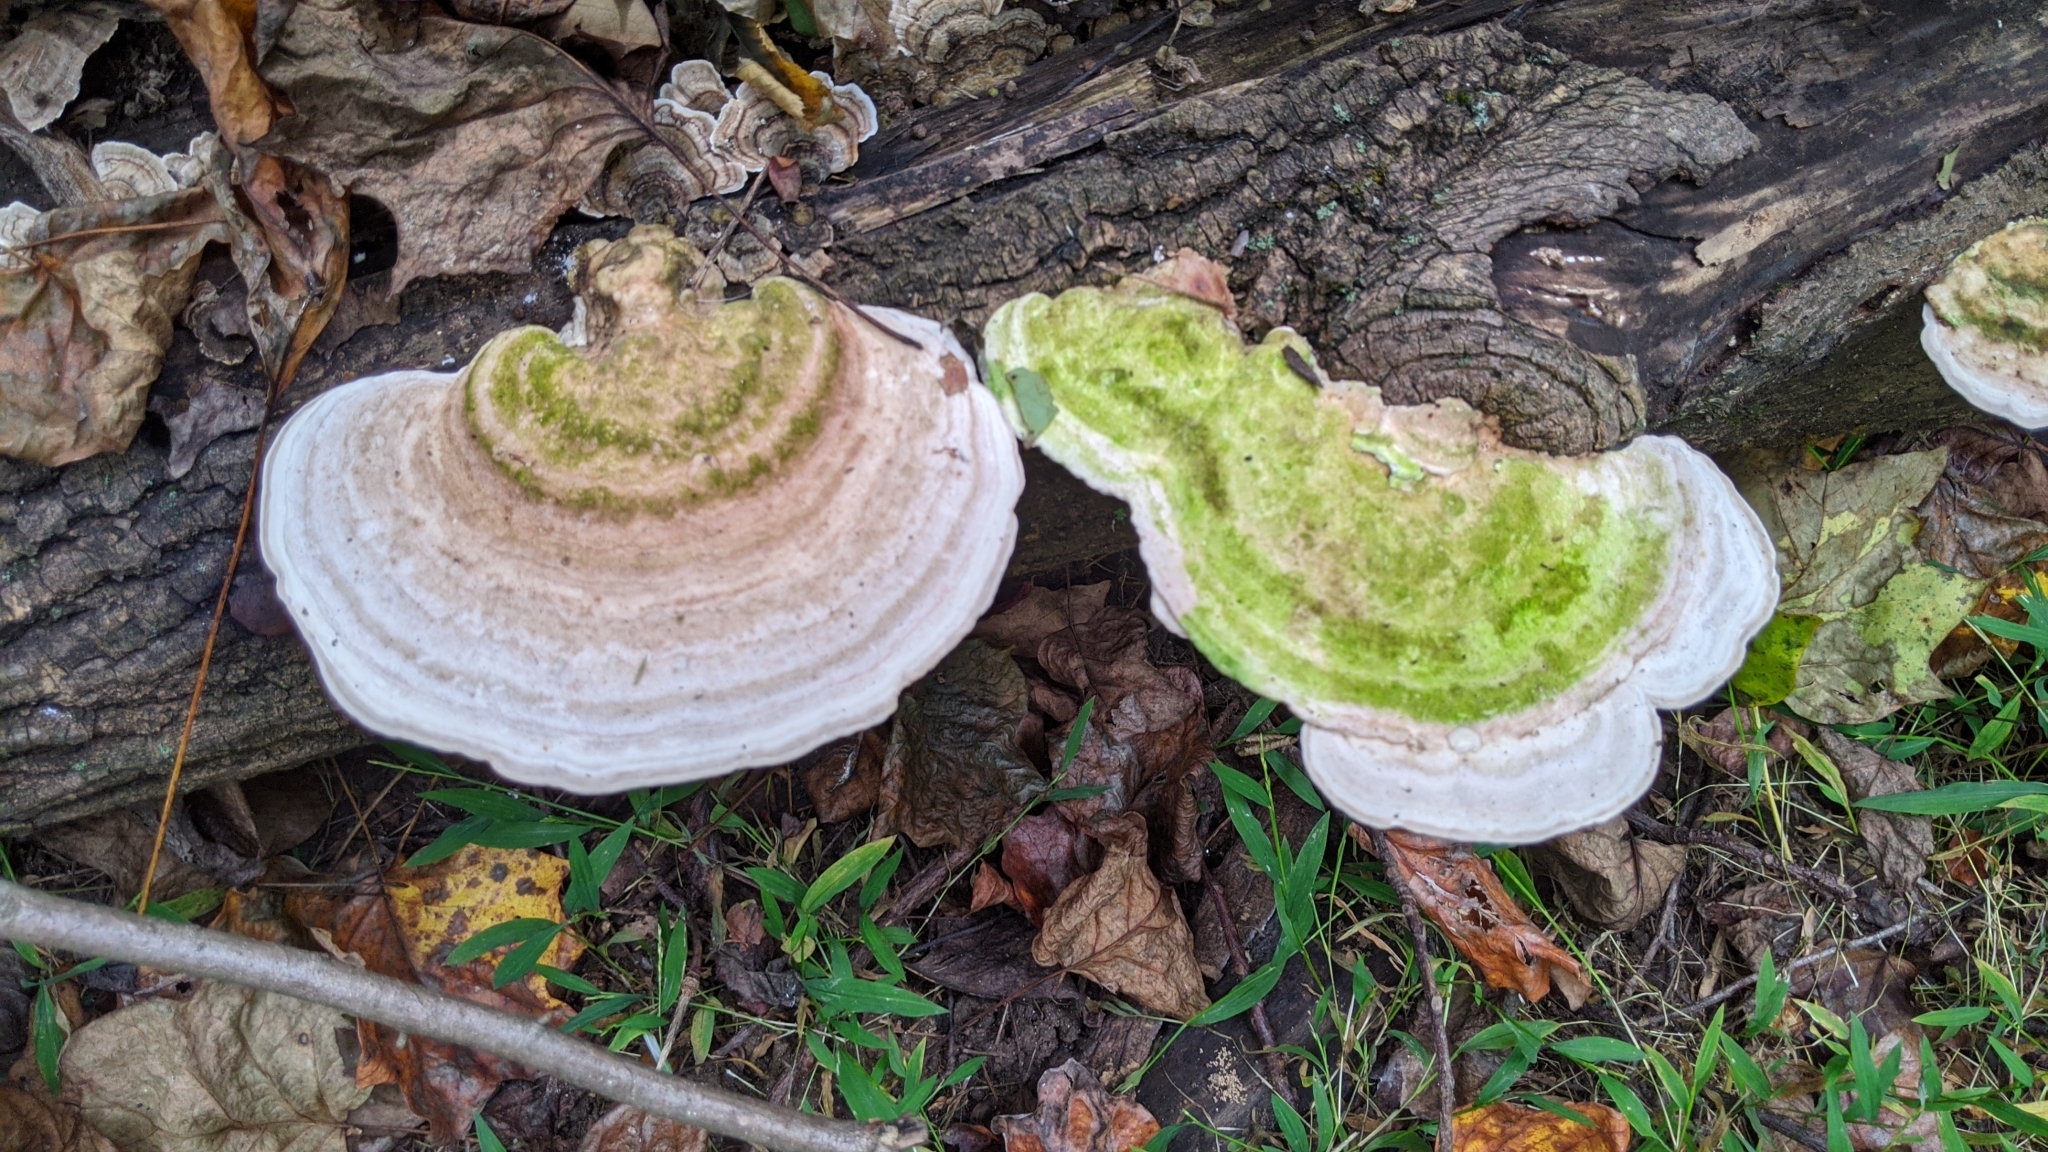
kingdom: Fungi
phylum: Basidiomycota
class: Agaricomycetes
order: Polyporales
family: Polyporaceae
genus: Trametes
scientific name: Trametes gibbosa
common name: Lumpy bracket
